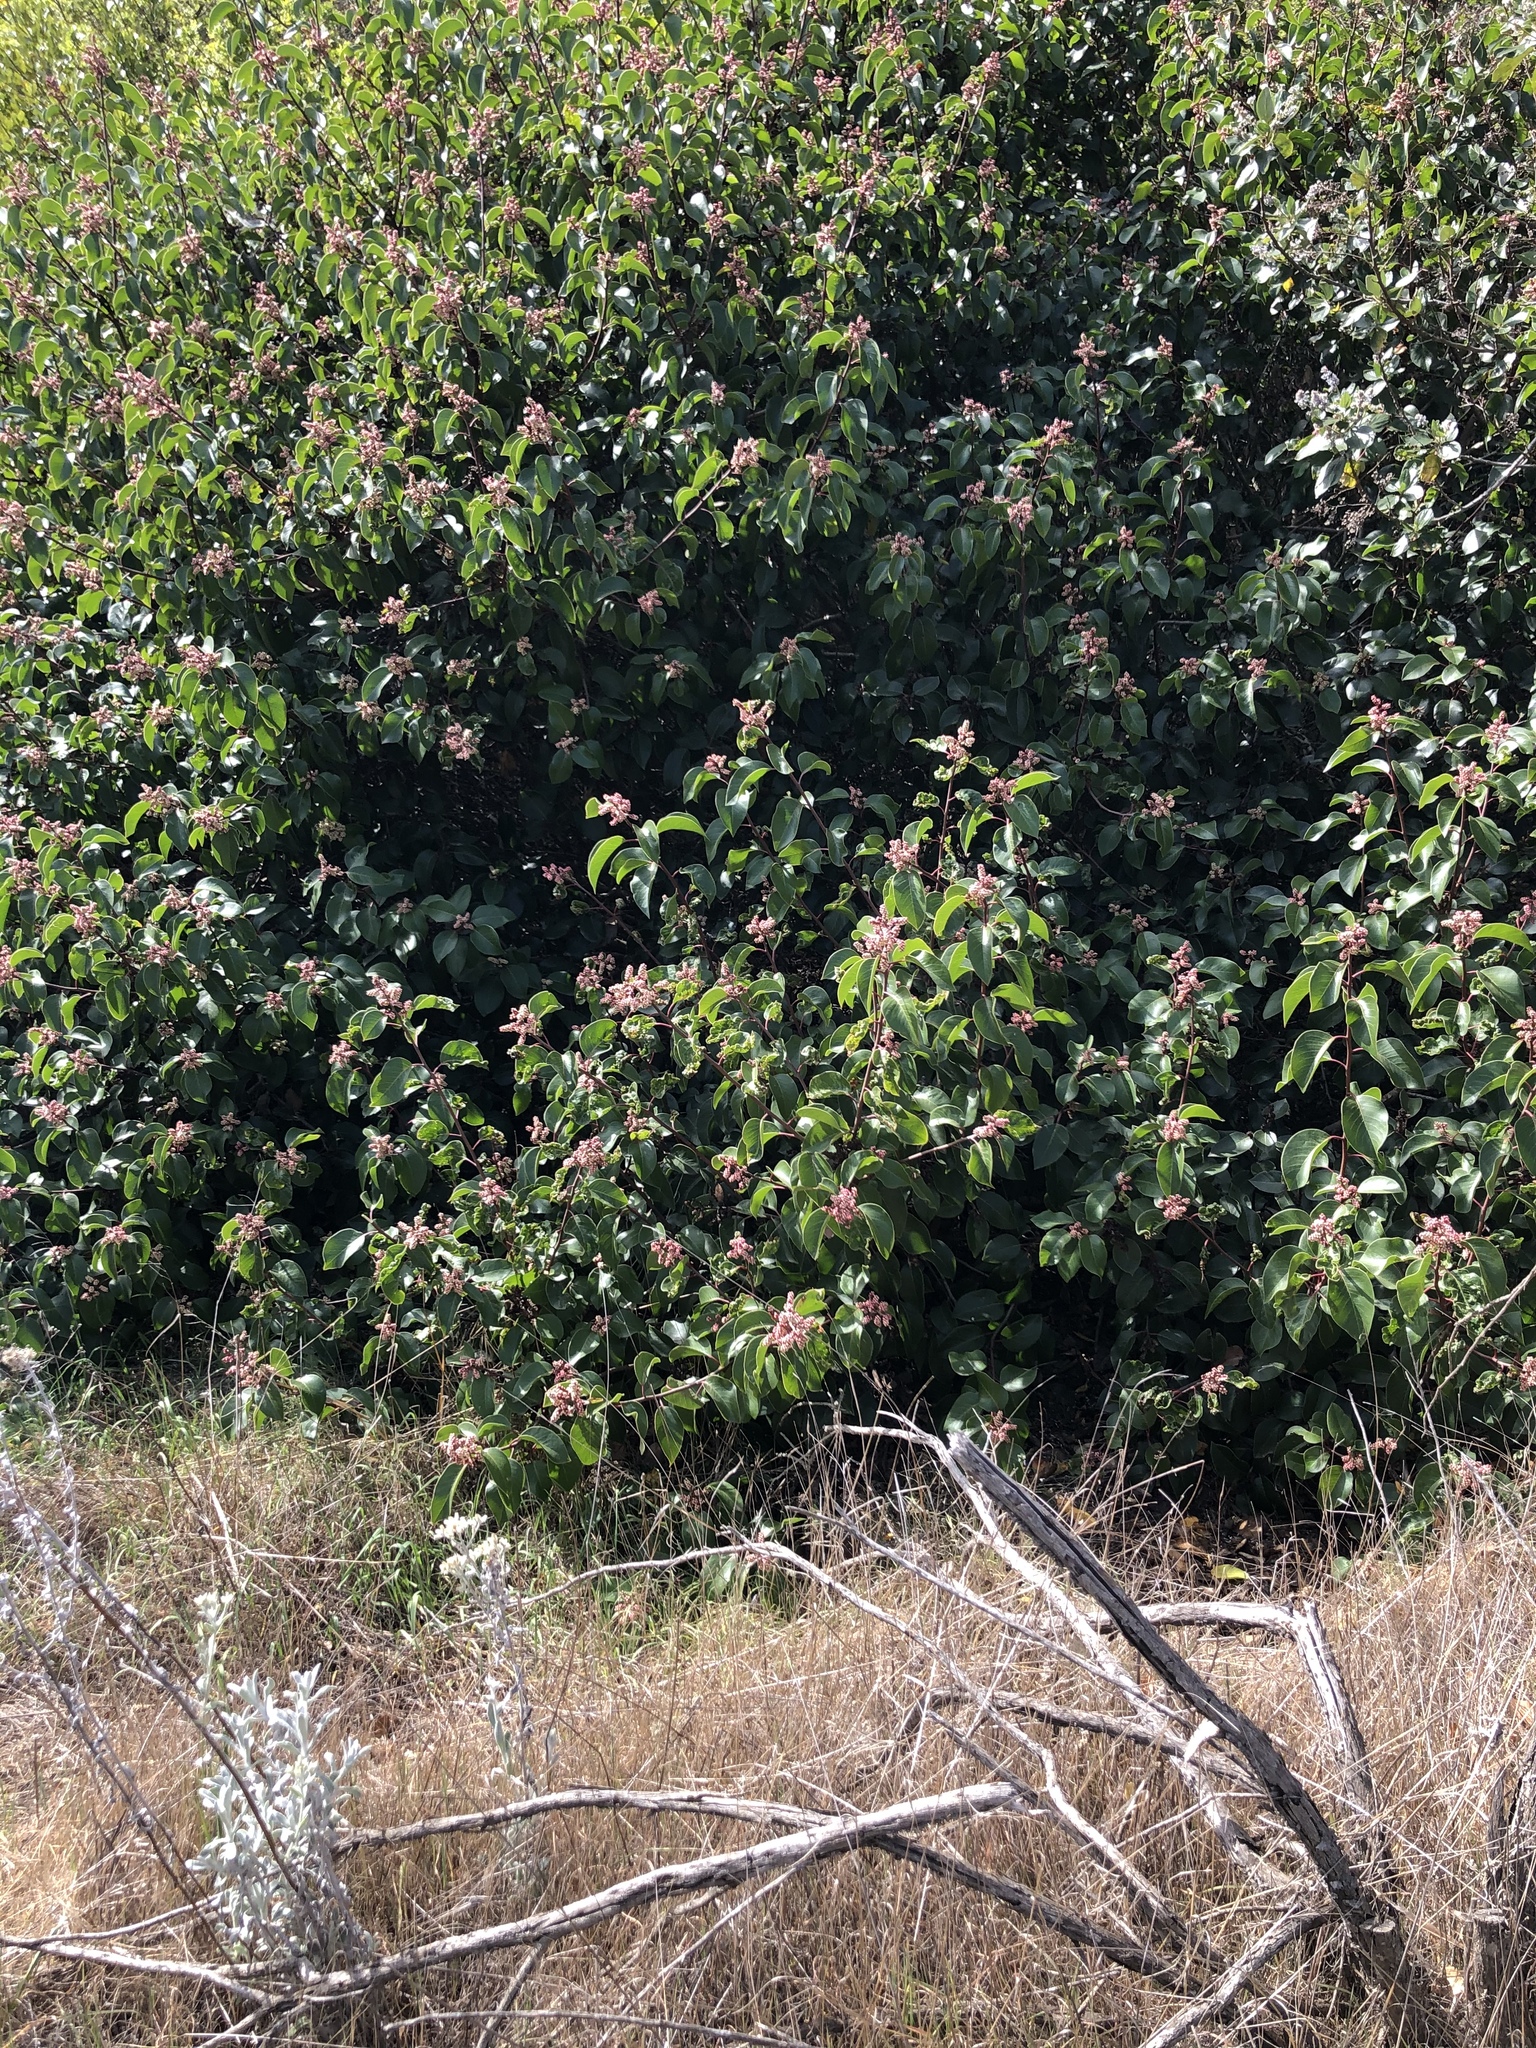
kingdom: Plantae
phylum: Tracheophyta
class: Magnoliopsida
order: Sapindales
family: Anacardiaceae
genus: Rhus
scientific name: Rhus ovata
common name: Sugar sumac
